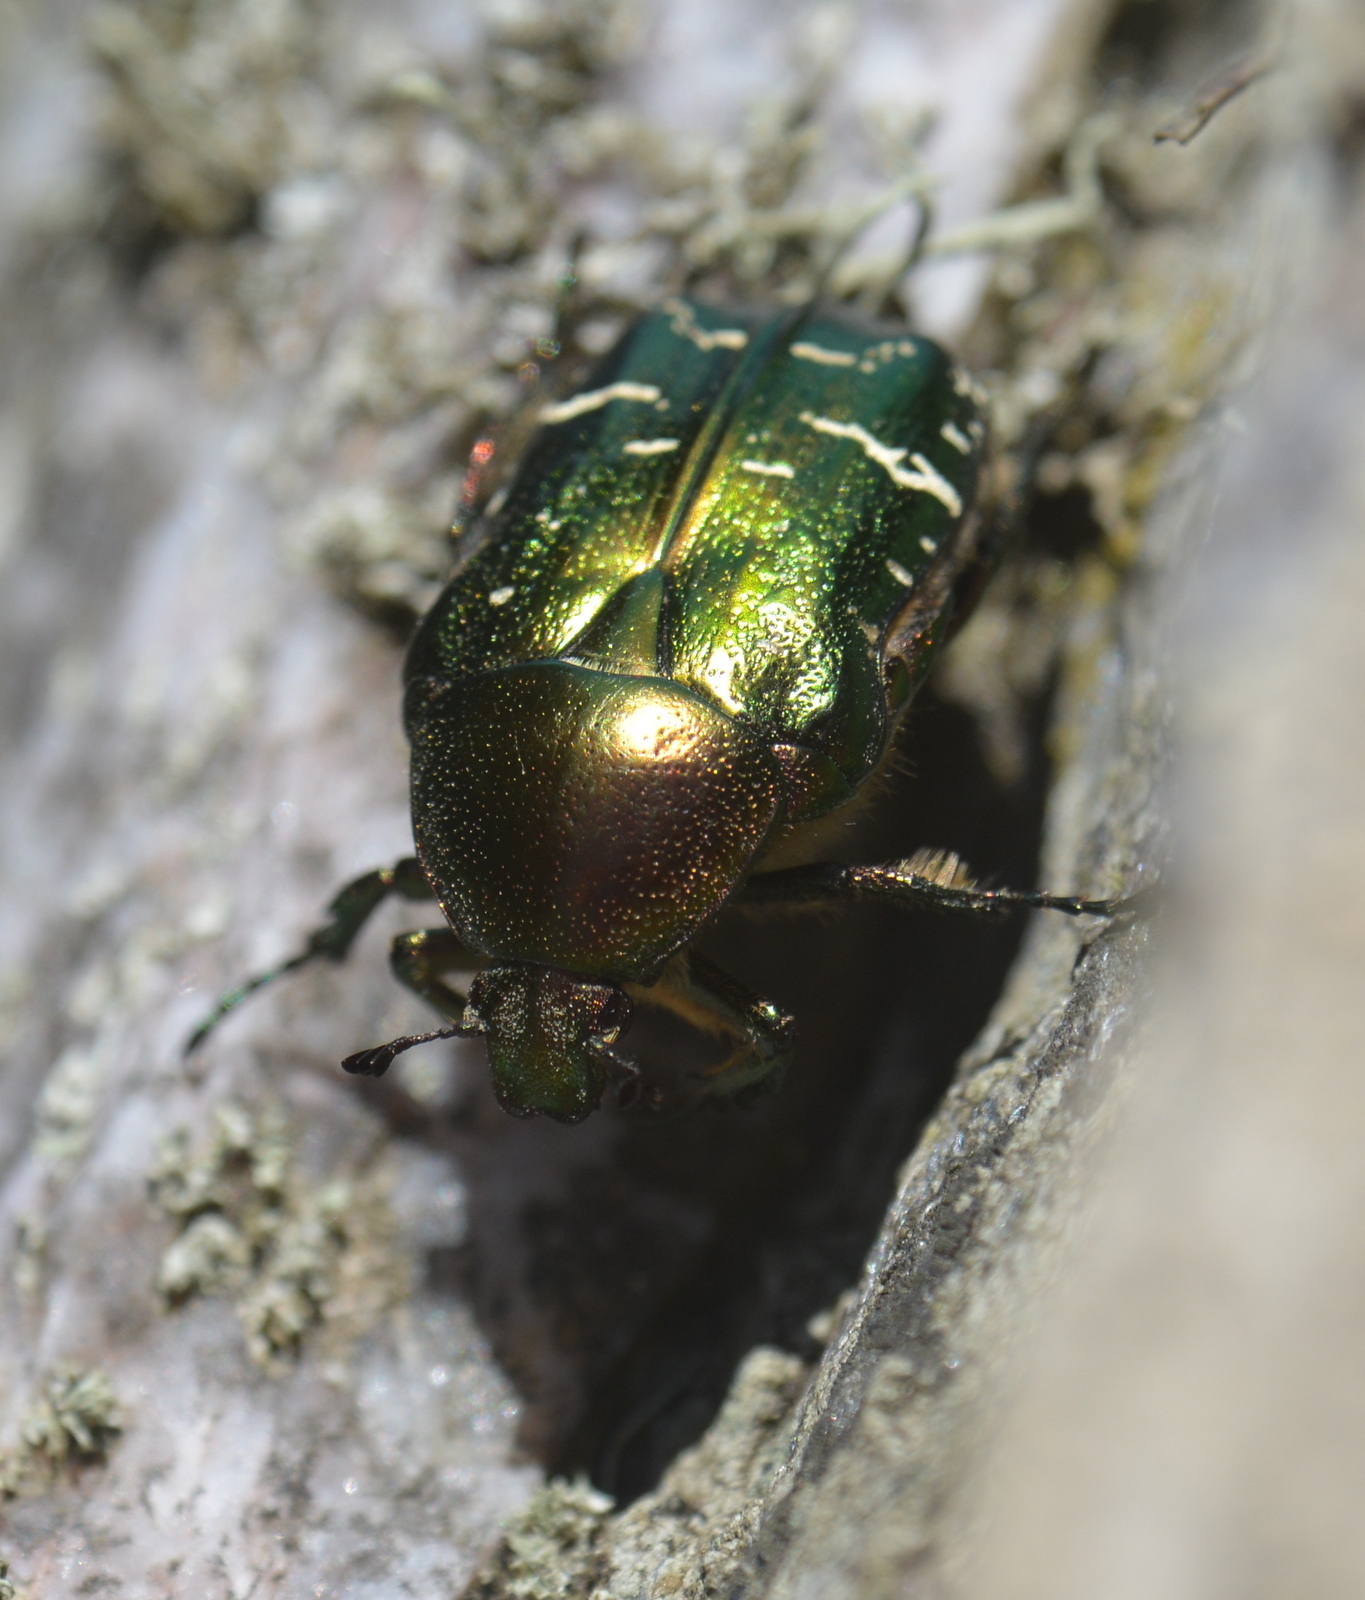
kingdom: Animalia
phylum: Arthropoda
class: Insecta
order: Coleoptera
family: Scarabaeidae
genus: Cetonia
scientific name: Cetonia aurata
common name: Rose chafer
